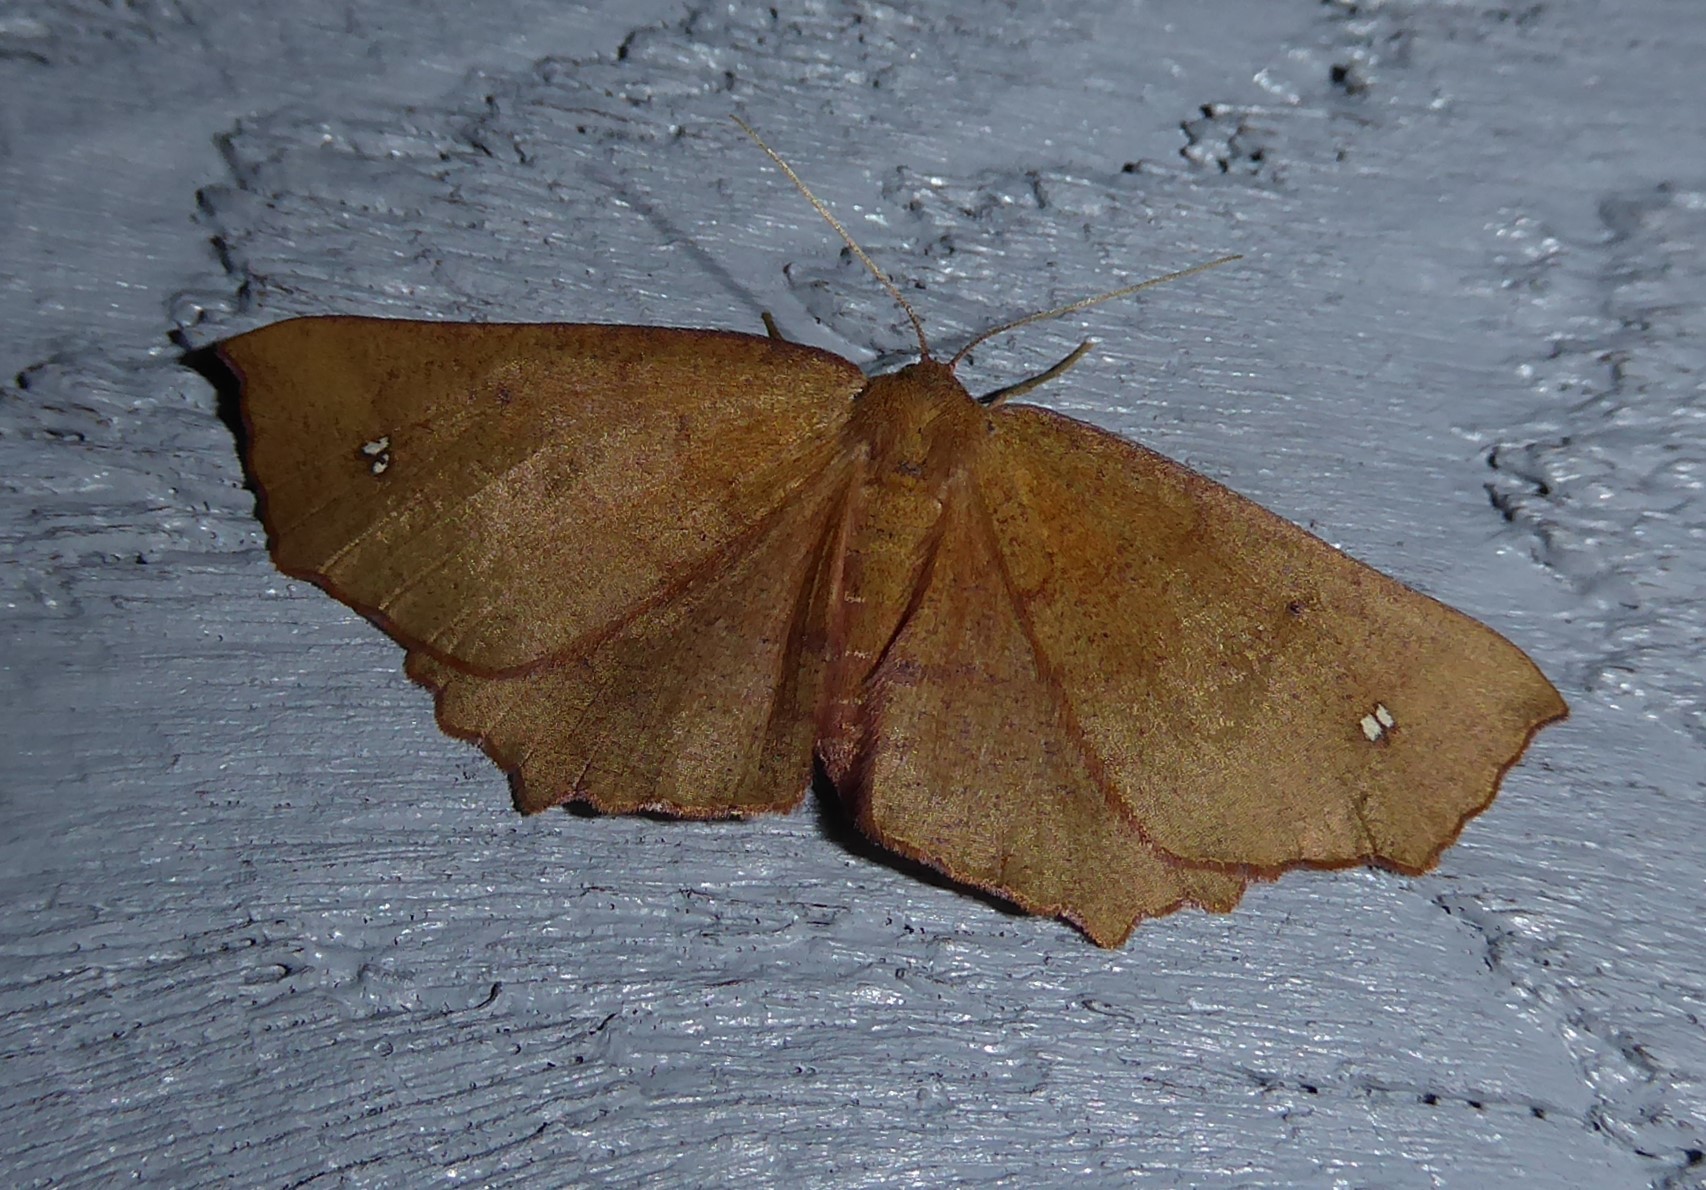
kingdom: Animalia
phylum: Arthropoda
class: Insecta
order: Lepidoptera
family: Geometridae
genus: Xyridacma
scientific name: Xyridacma ustaria
